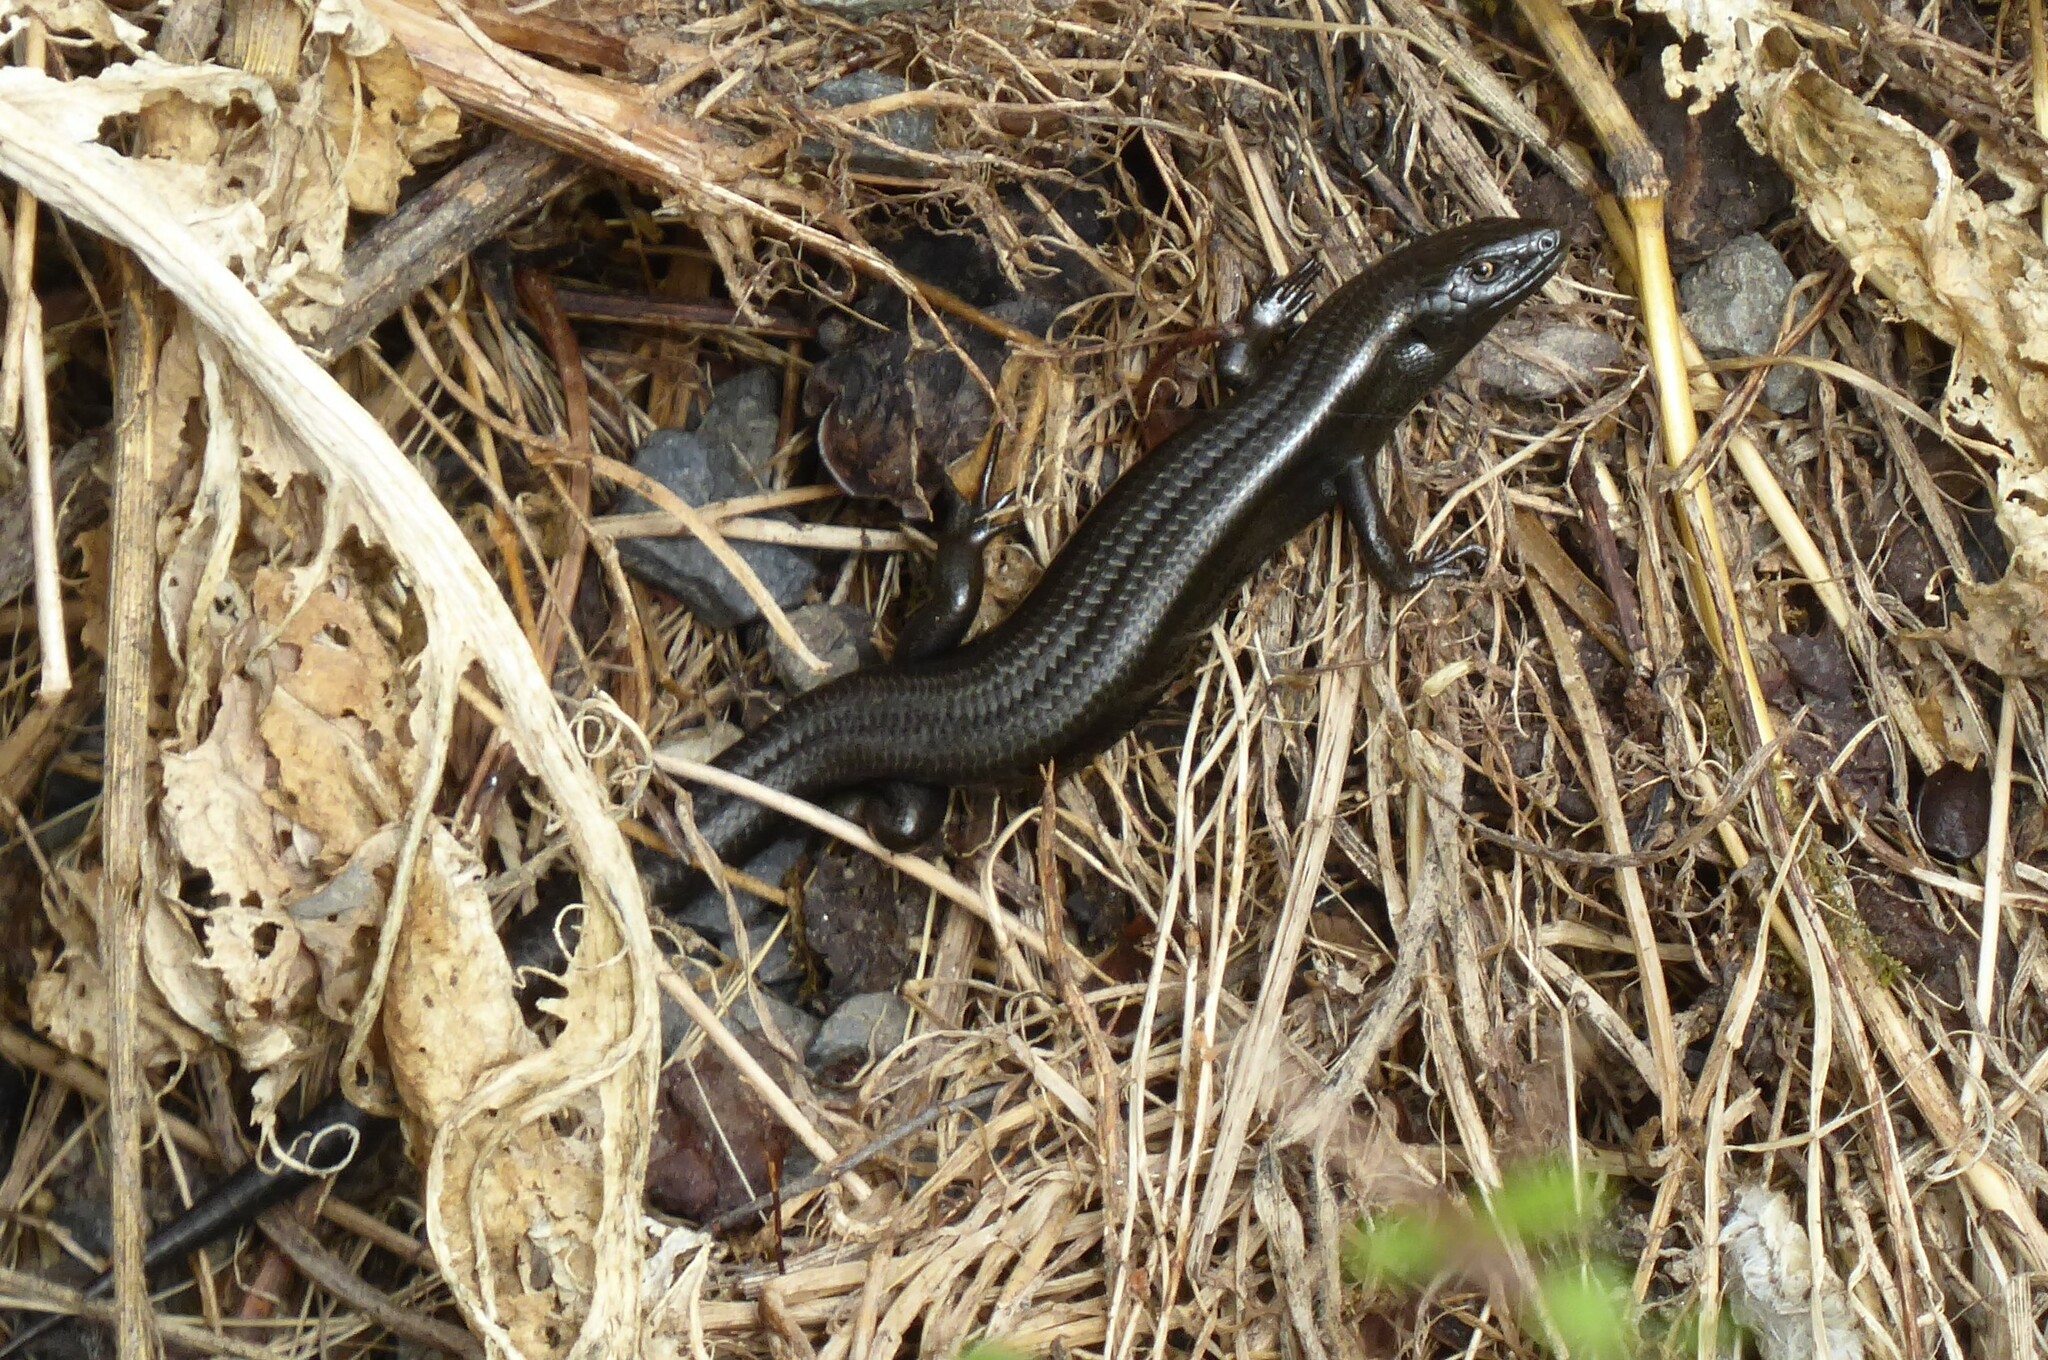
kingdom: Animalia
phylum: Chordata
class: Squamata
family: Scincidae
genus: Oligosoma
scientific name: Oligosoma polychroma
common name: Common new zealand skink
